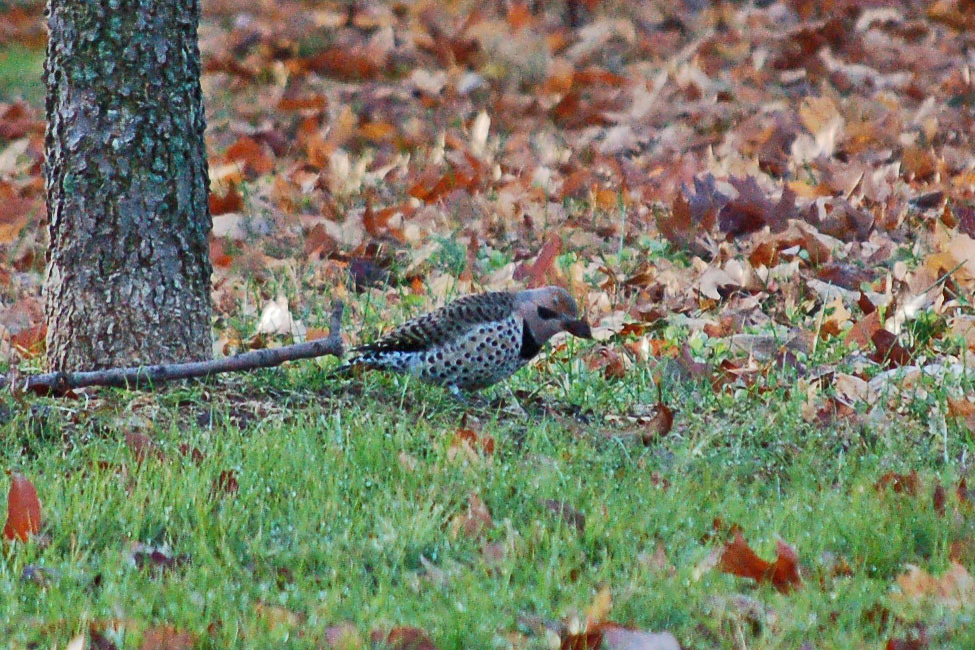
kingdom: Animalia
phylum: Chordata
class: Aves
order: Piciformes
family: Picidae
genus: Colaptes
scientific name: Colaptes auratus
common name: Northern flicker
